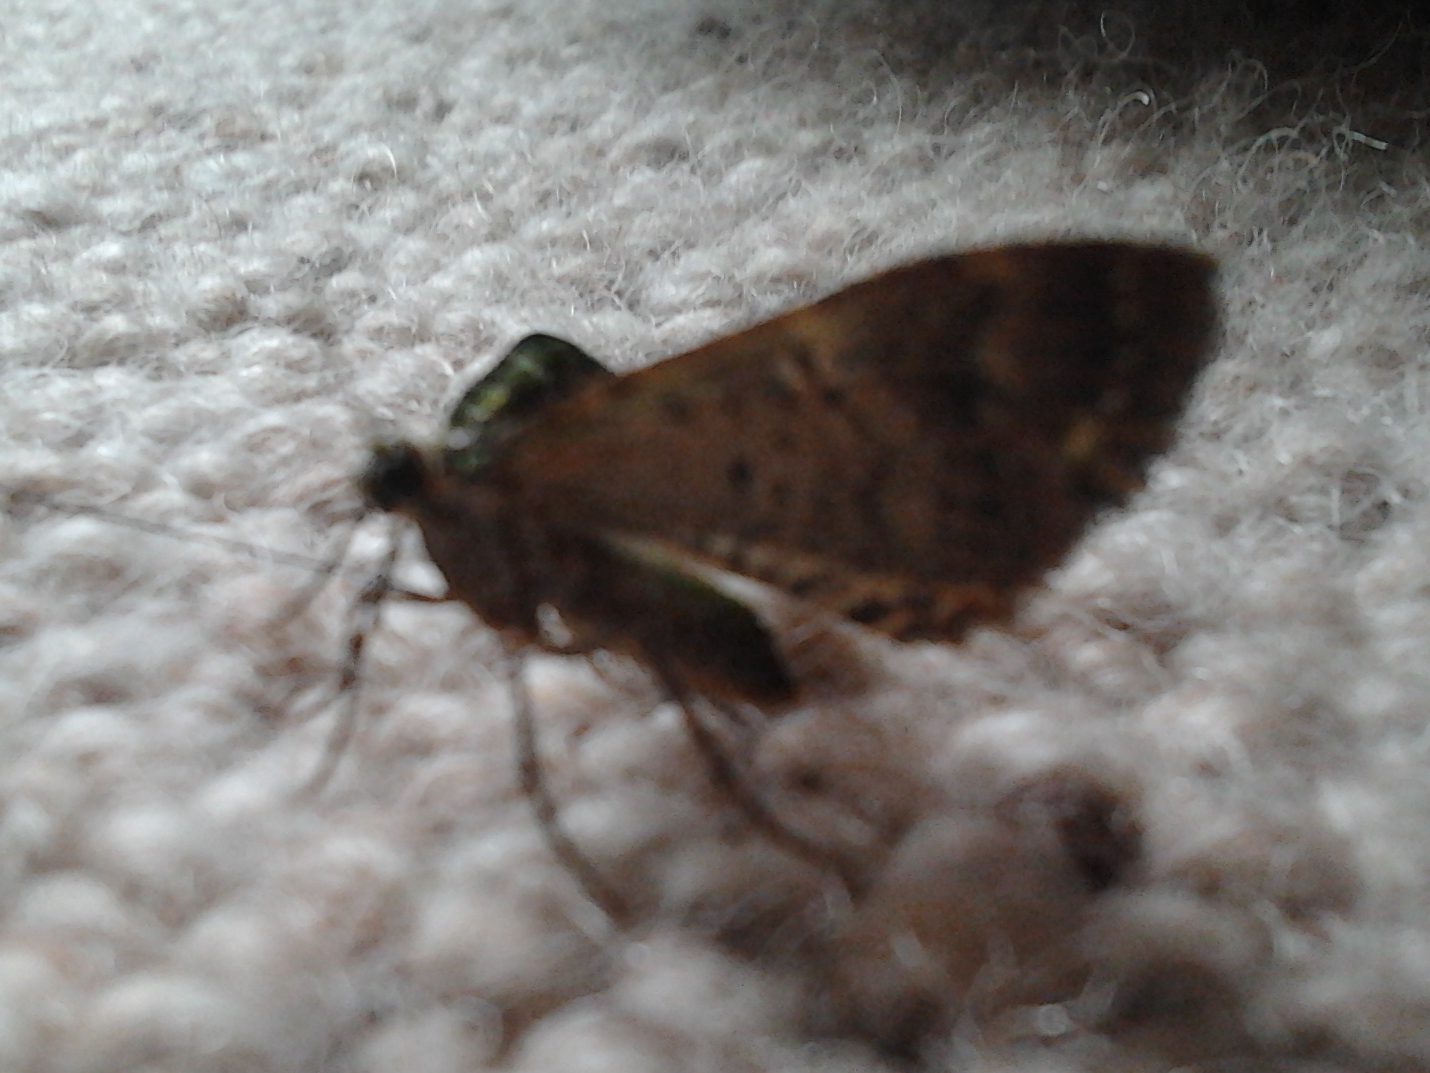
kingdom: Animalia
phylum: Arthropoda
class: Insecta
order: Lepidoptera
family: Geometridae
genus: Austrocidaria
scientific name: Austrocidaria similata
